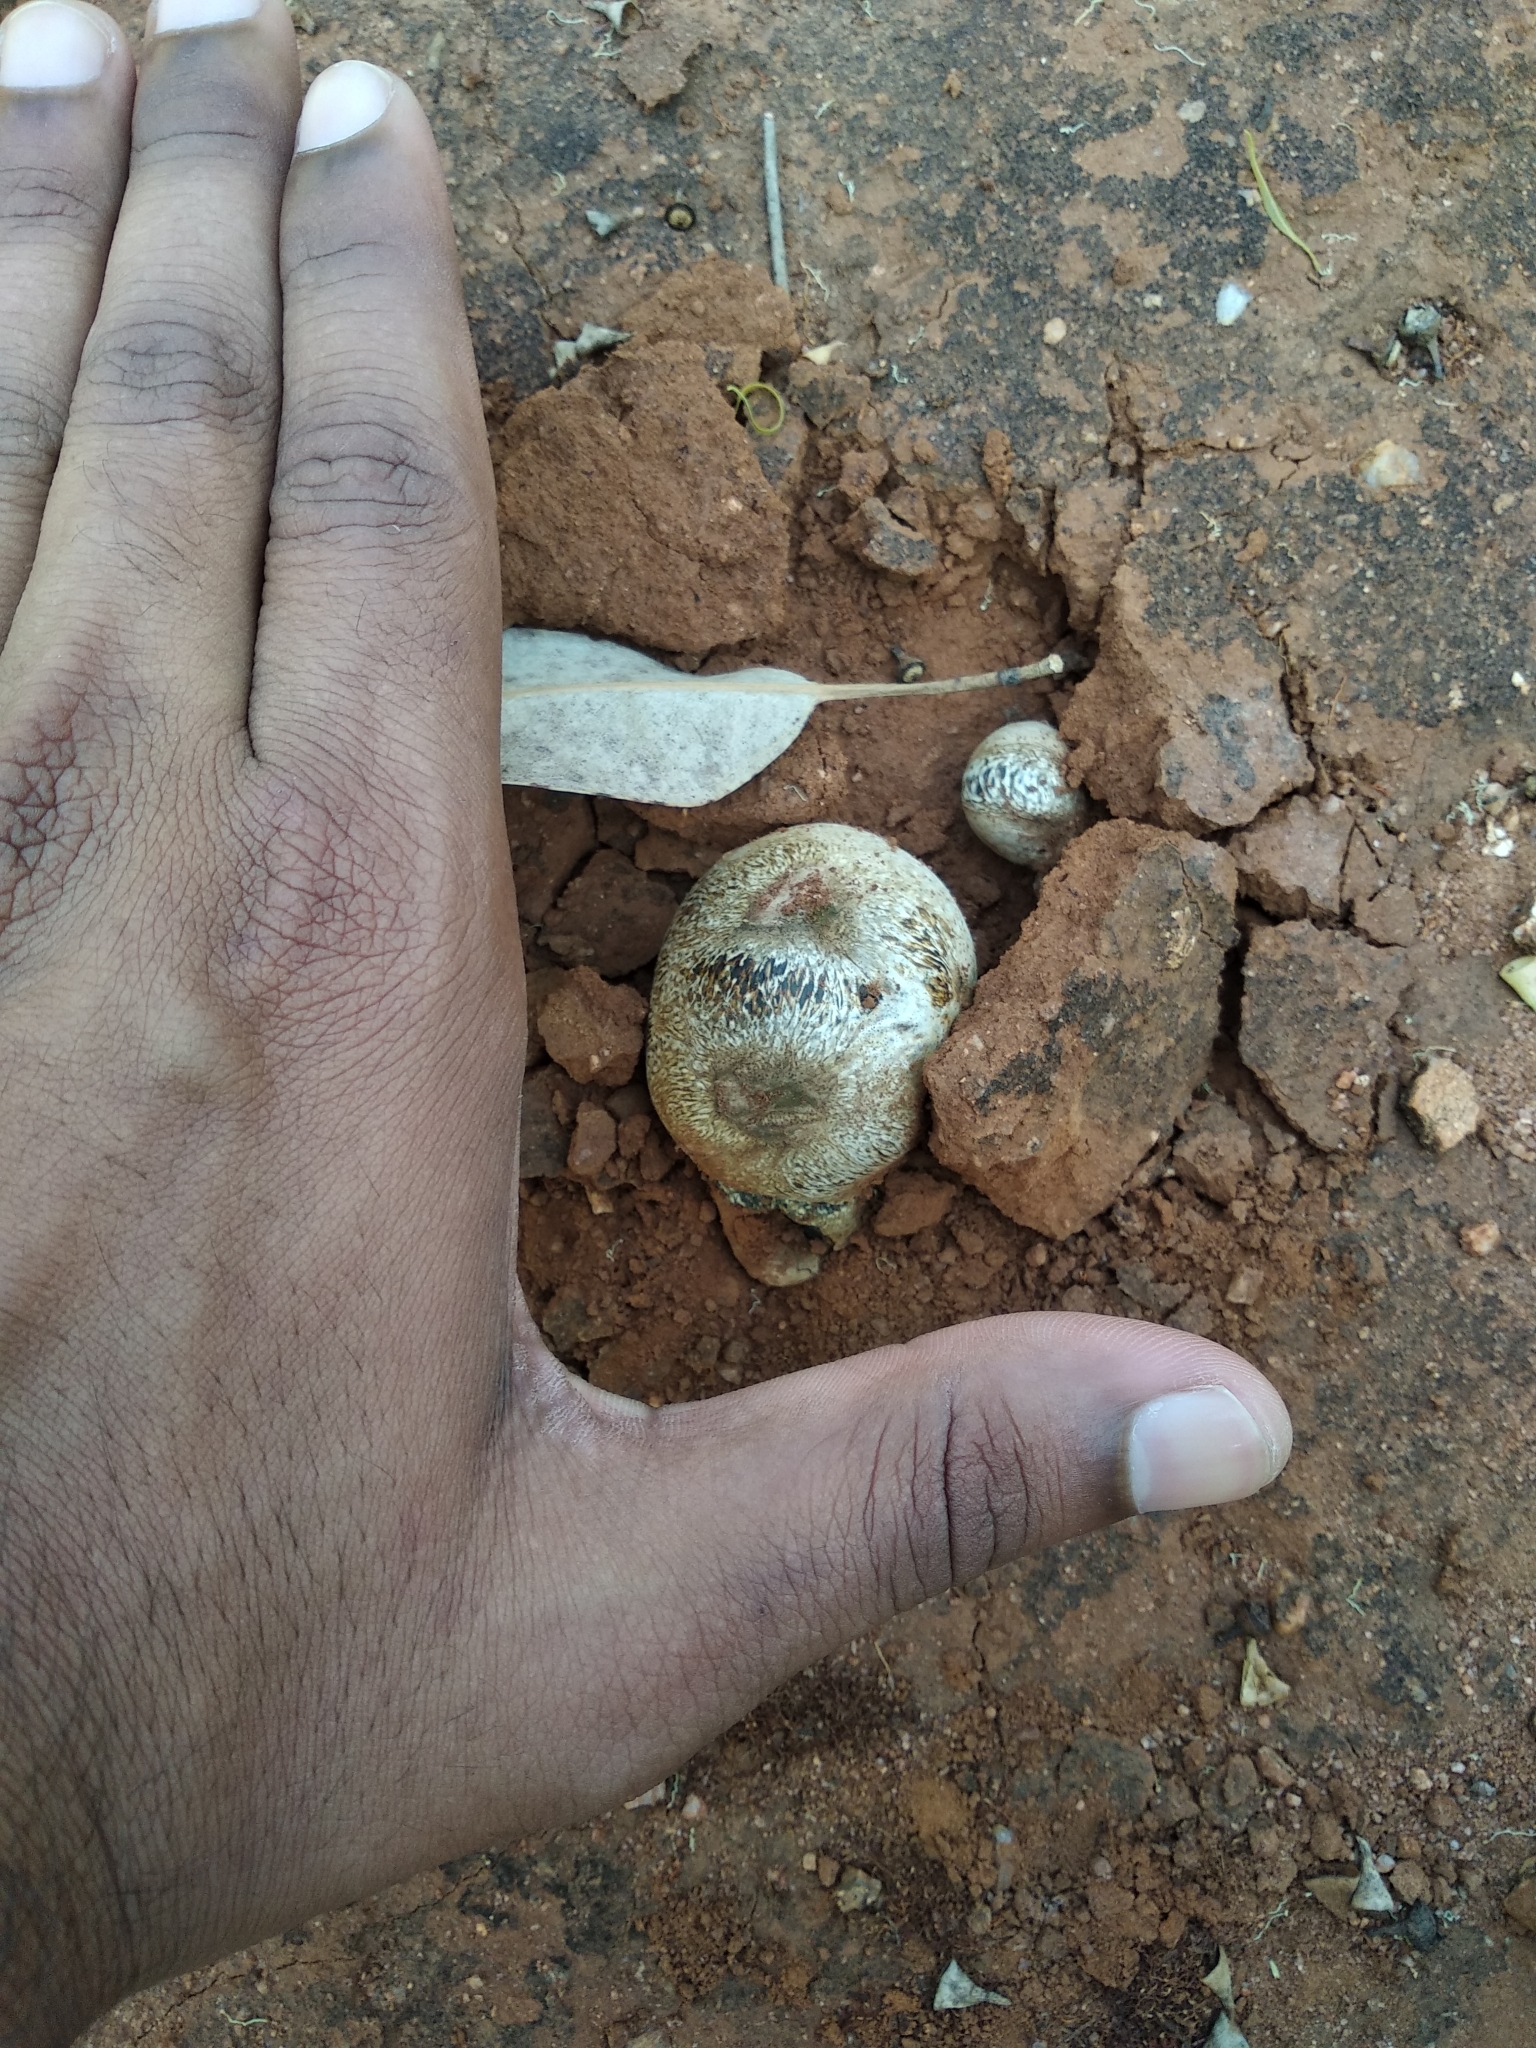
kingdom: Fungi
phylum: Basidiomycota
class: Agaricomycetes
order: Boletales
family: Sclerodermataceae
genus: Pisolithus
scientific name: Pisolithus arhizus
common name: Dyeball
